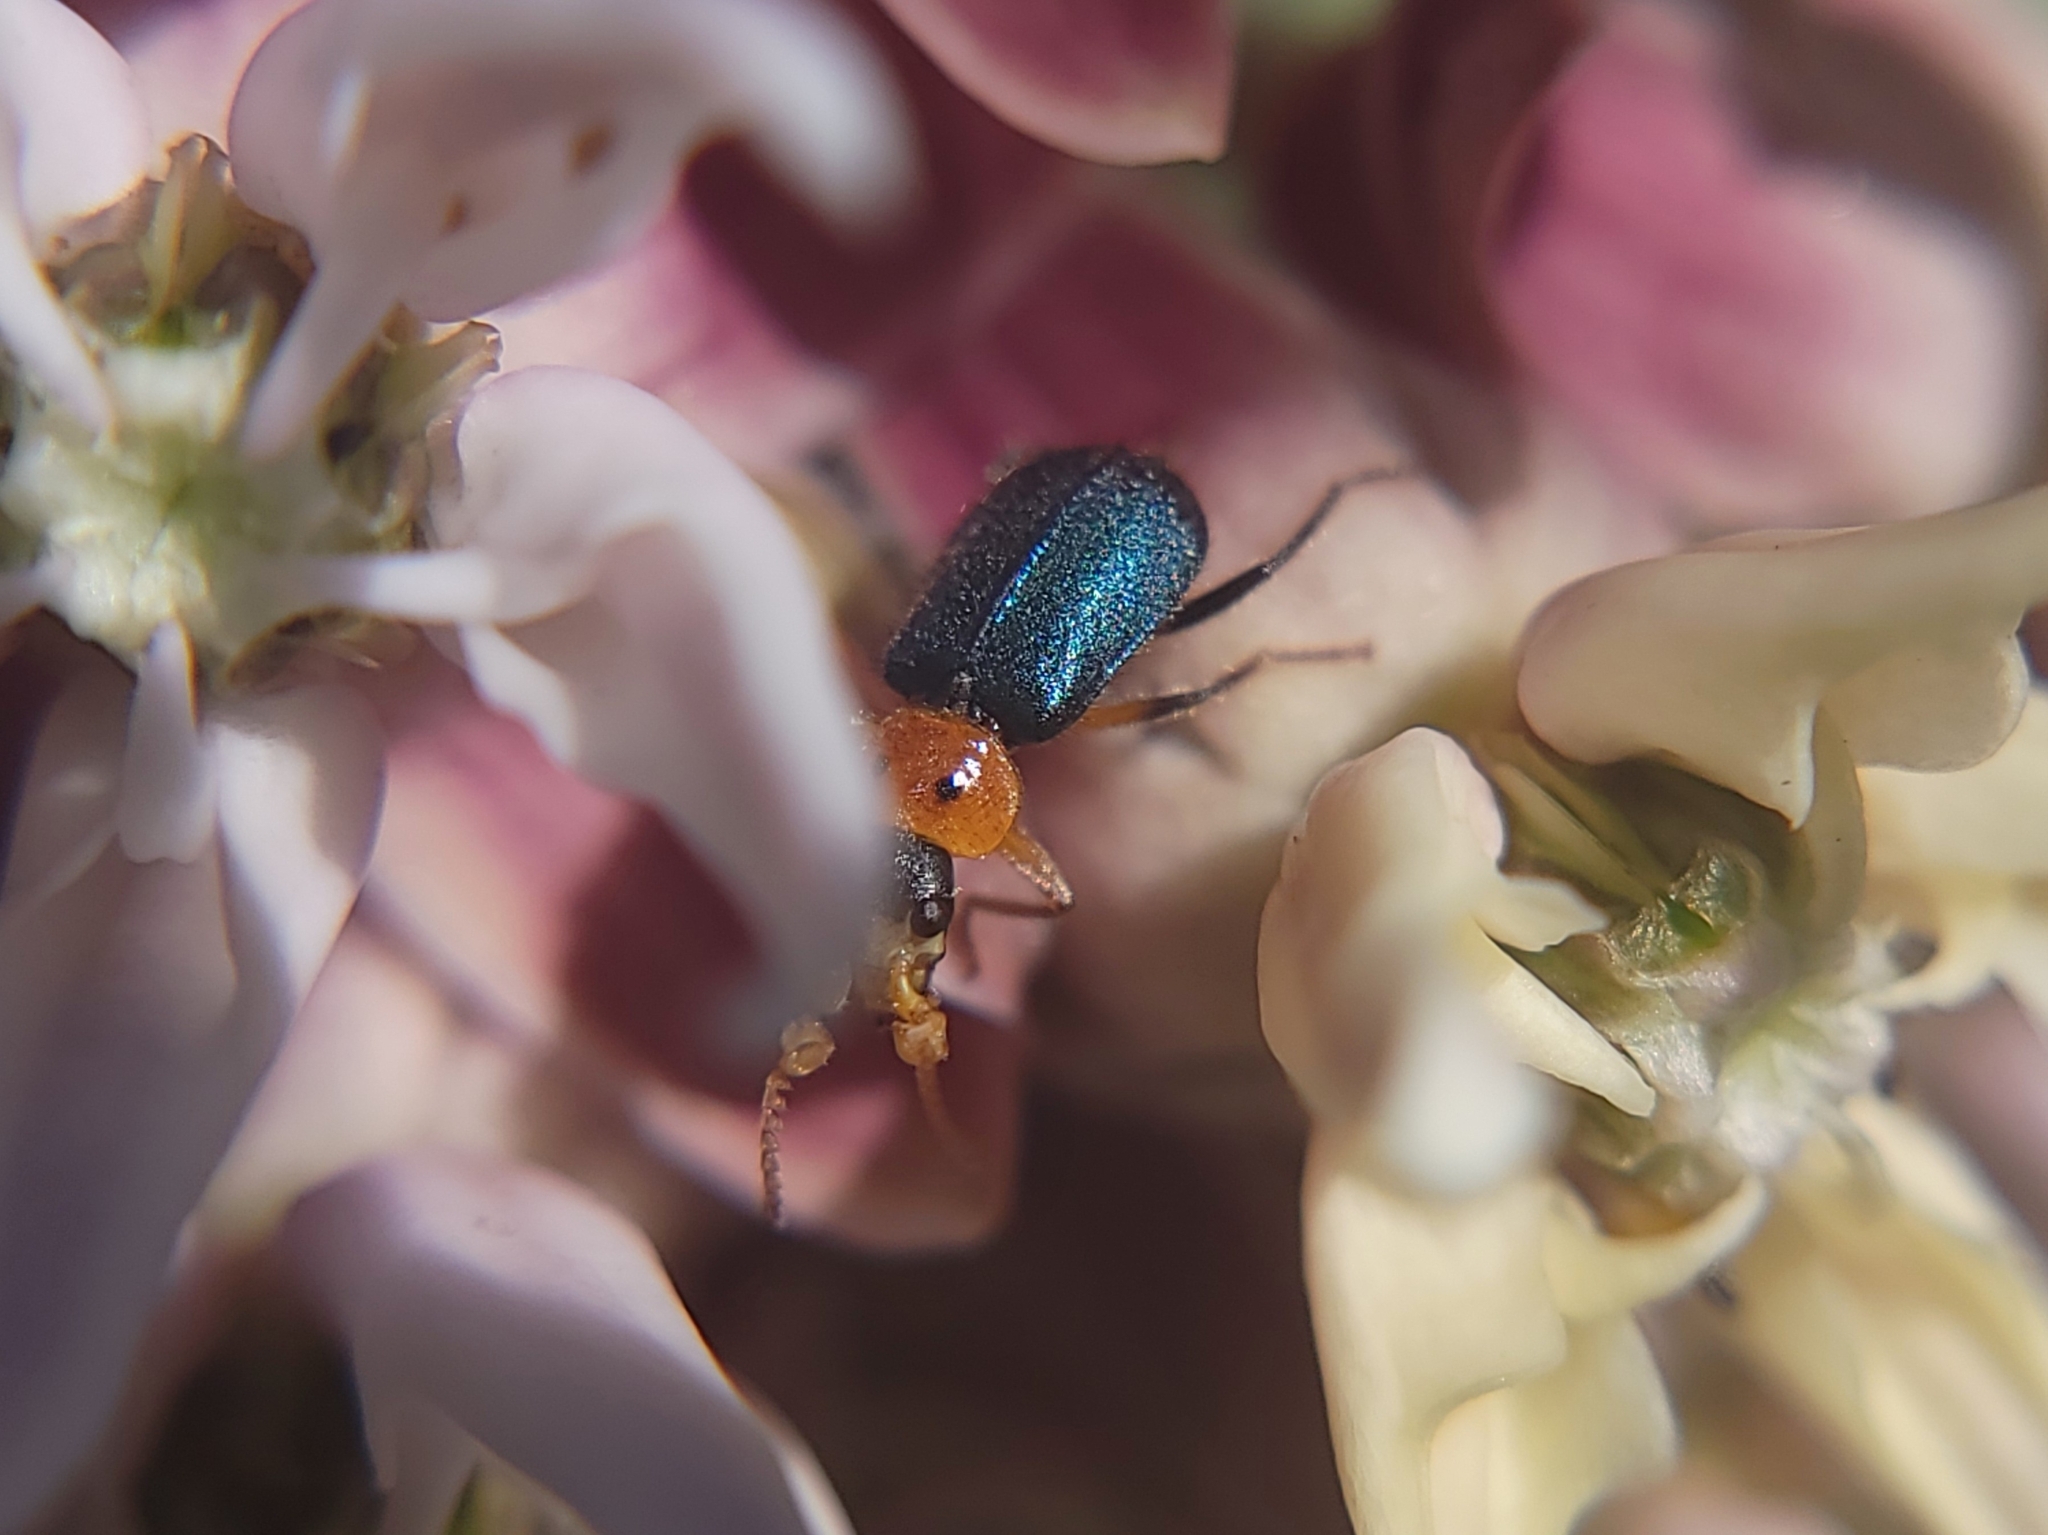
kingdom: Animalia
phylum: Arthropoda
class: Insecta
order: Coleoptera
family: Melyridae
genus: Collops
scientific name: Collops bipunctatus
